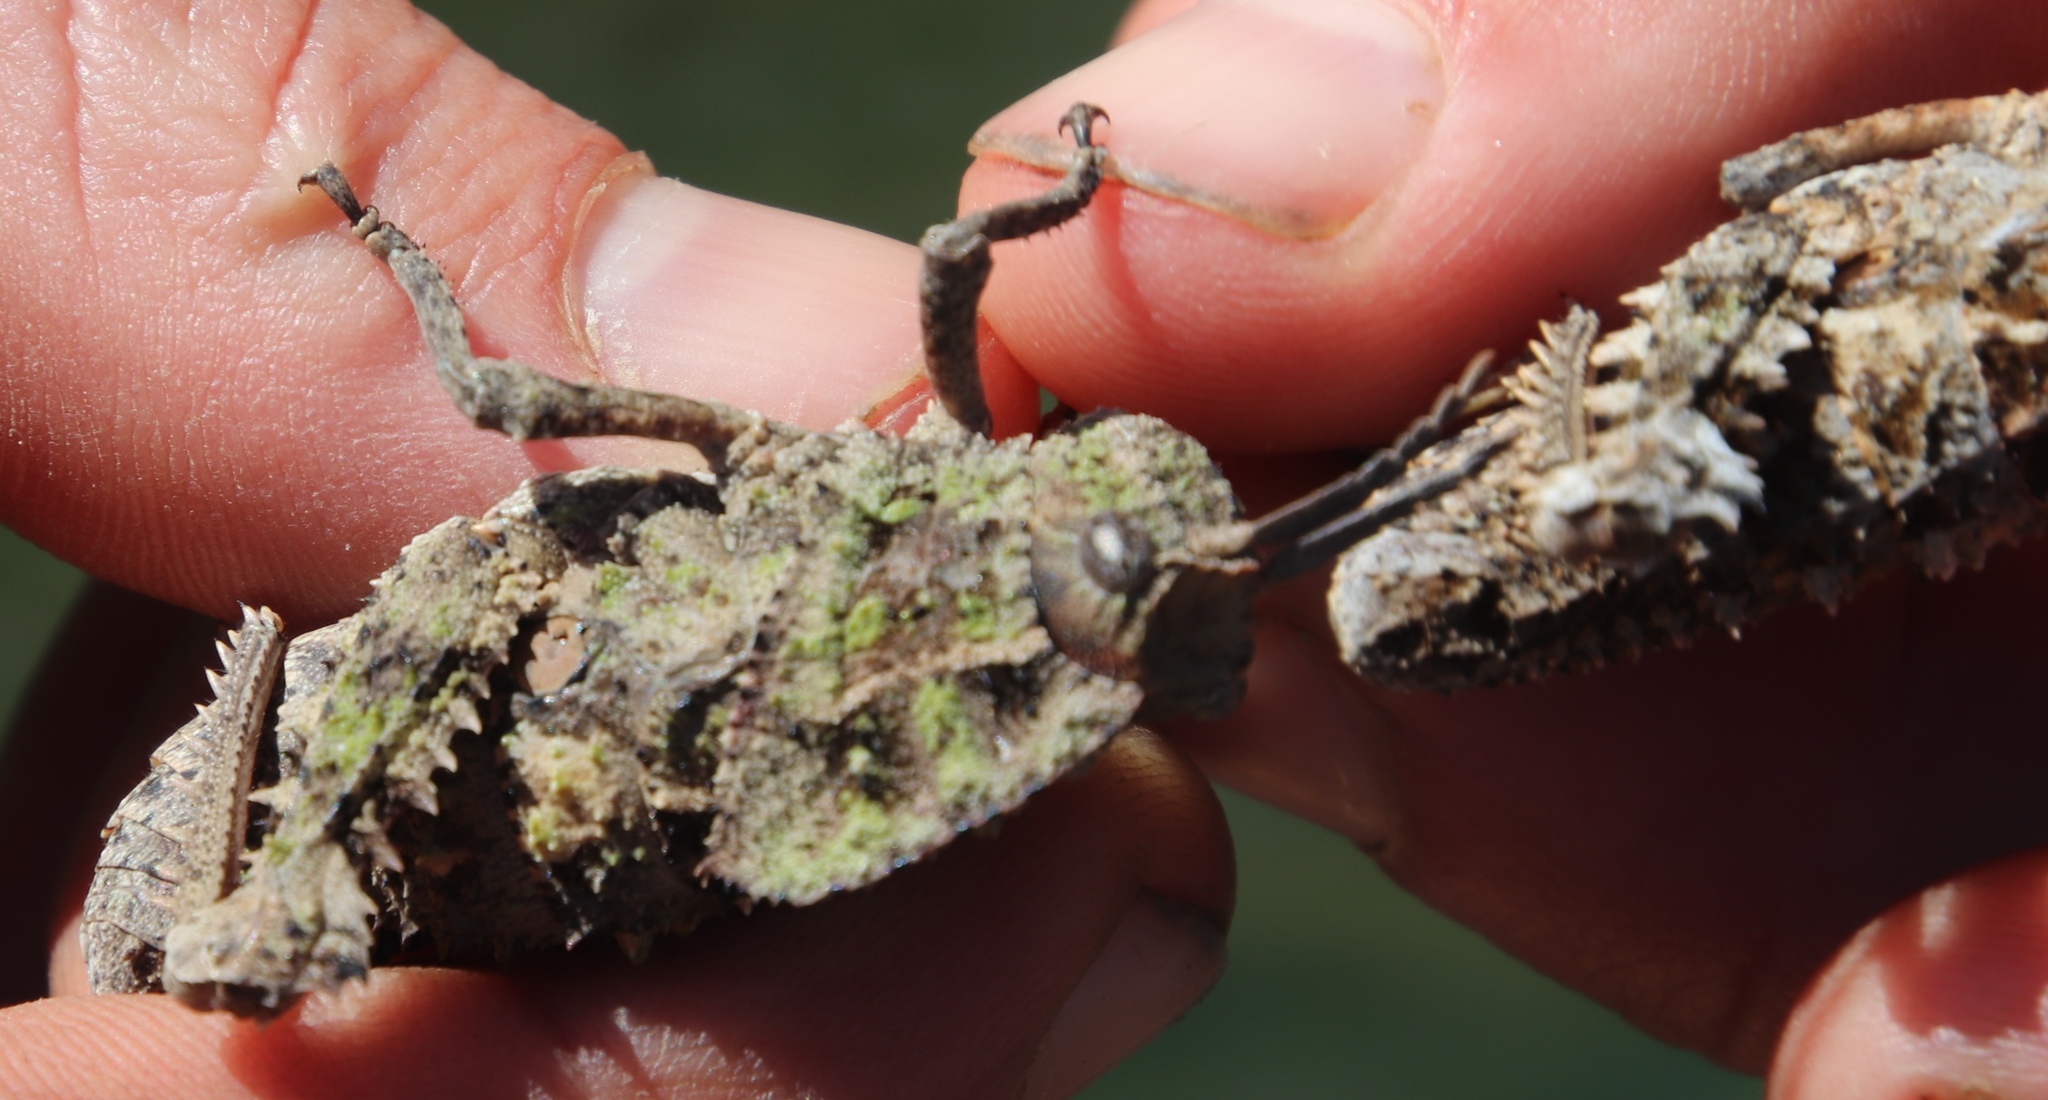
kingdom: Animalia
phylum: Arthropoda
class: Insecta
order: Orthoptera
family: Pamphagidae
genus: Porthetis
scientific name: Porthetis carinata
